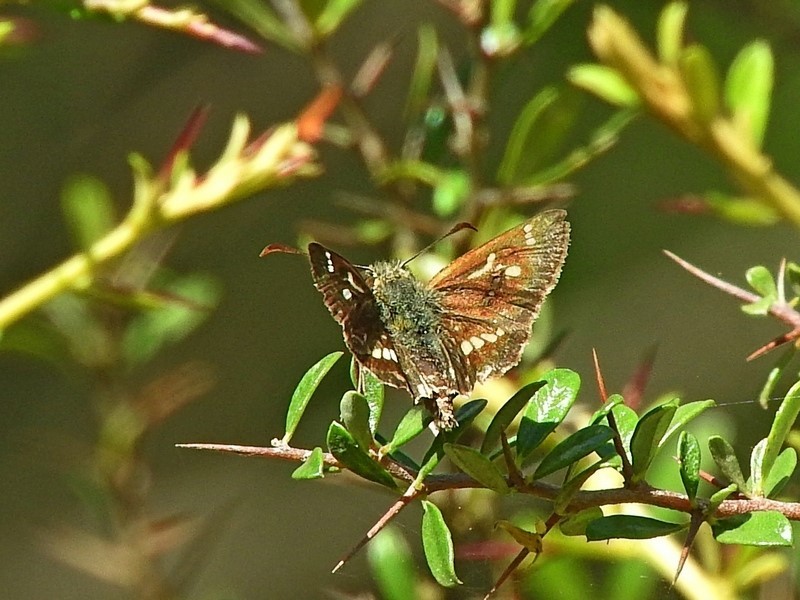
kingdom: Animalia
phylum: Arthropoda
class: Insecta
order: Lepidoptera
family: Hesperiidae
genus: Dispar
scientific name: Dispar compacta
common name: Barred skipper
